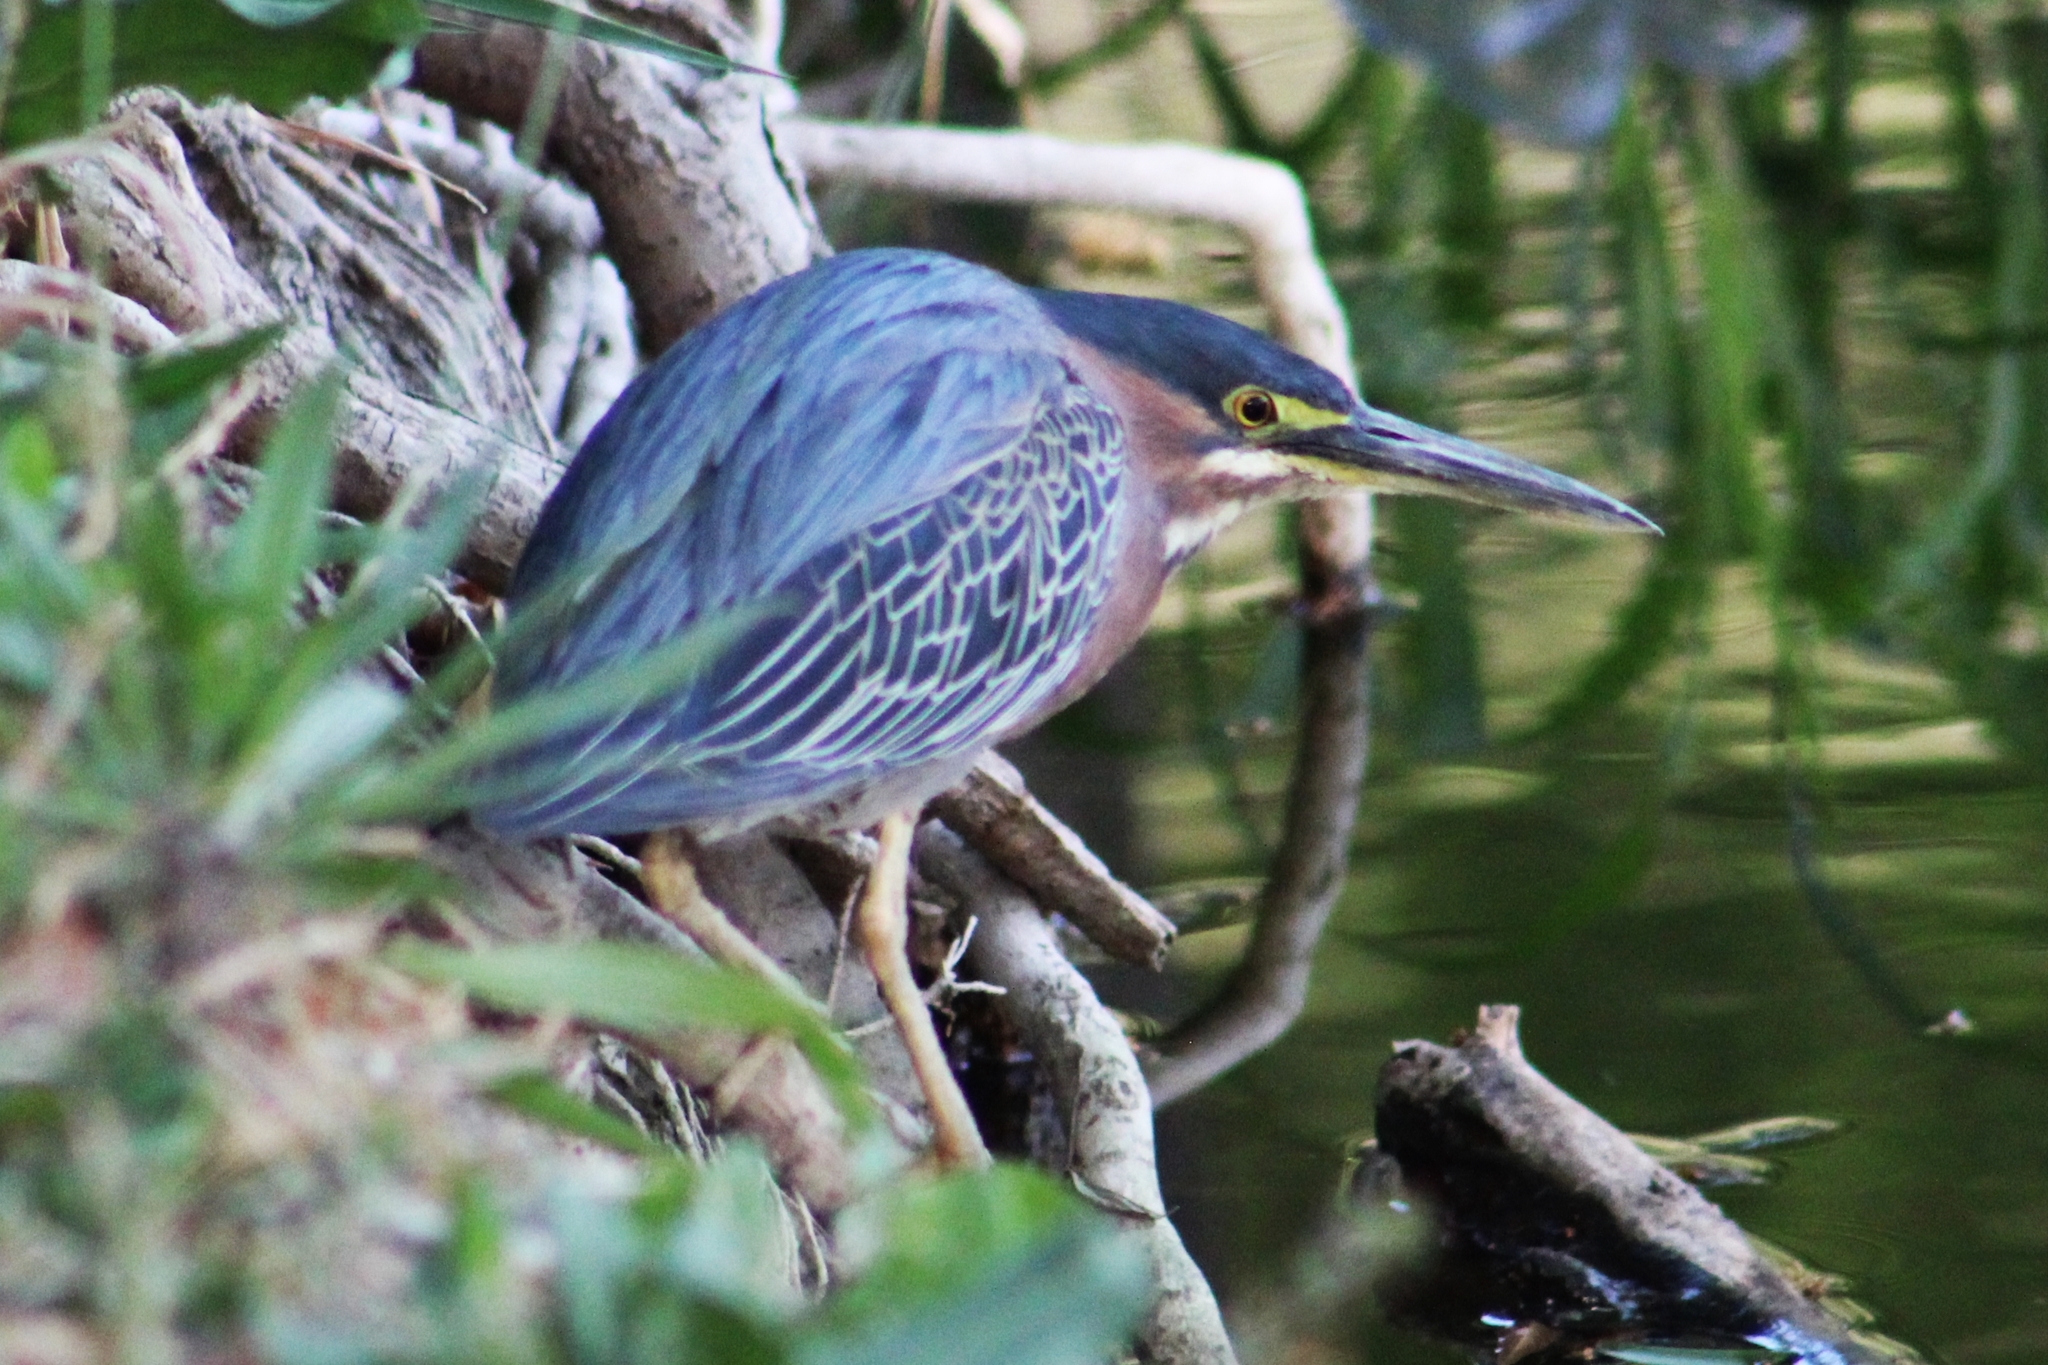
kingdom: Animalia
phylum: Chordata
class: Aves
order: Pelecaniformes
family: Ardeidae
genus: Butorides
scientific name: Butorides virescens
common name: Green heron
